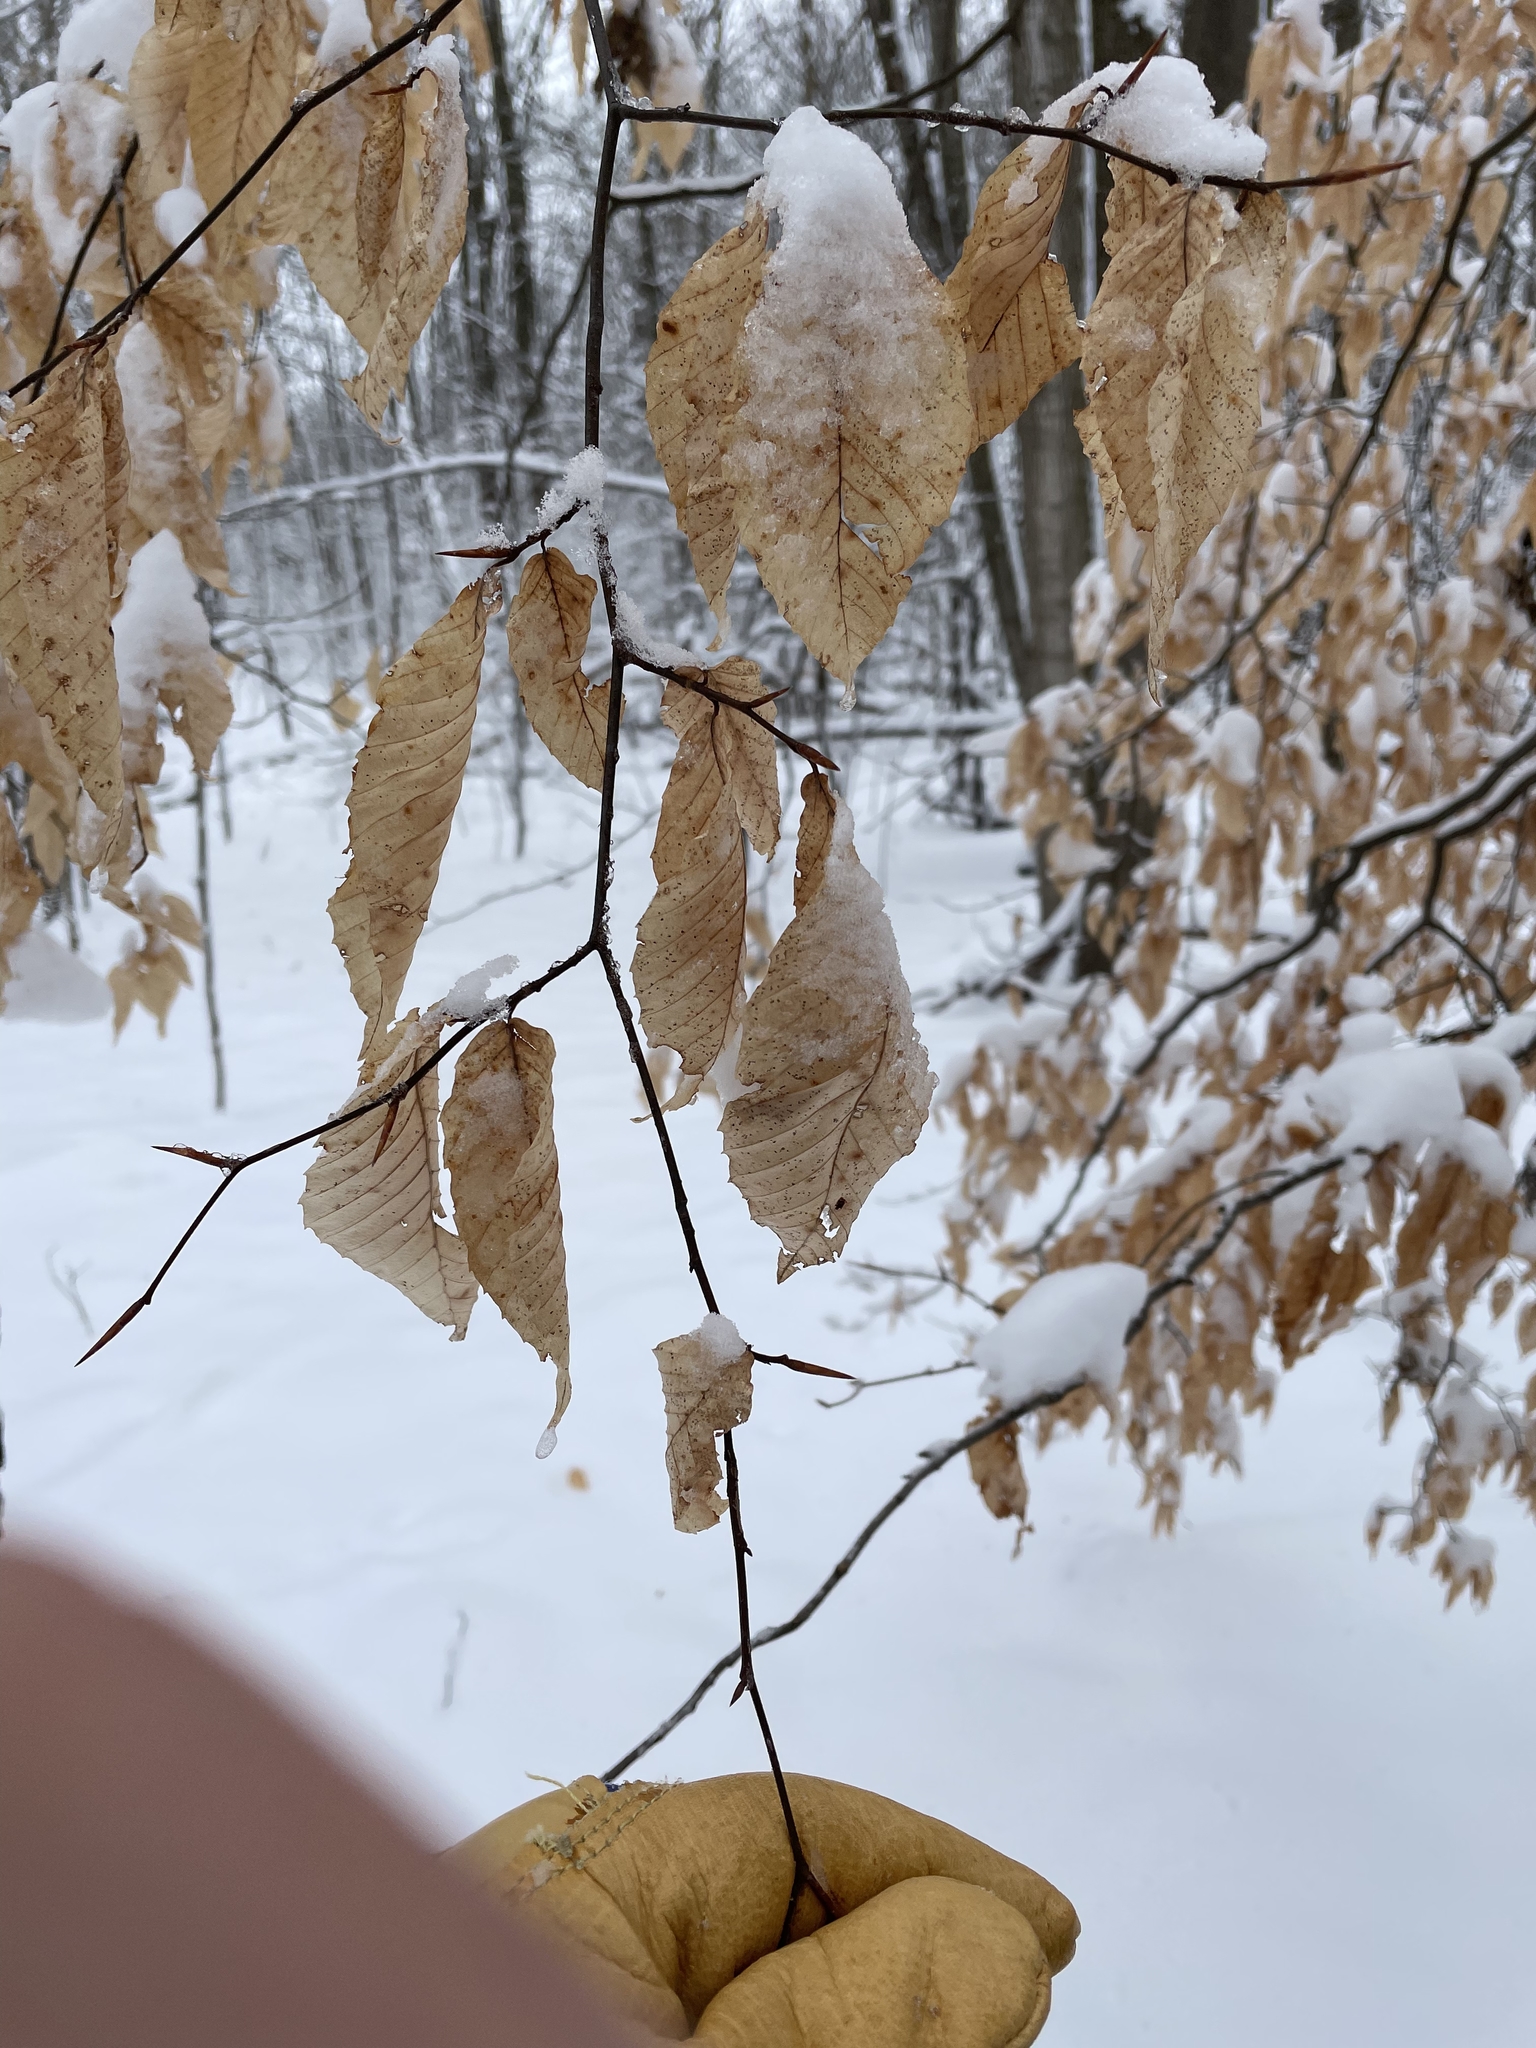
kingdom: Plantae
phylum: Tracheophyta
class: Magnoliopsida
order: Fagales
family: Fagaceae
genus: Fagus
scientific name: Fagus grandifolia
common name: American beech
